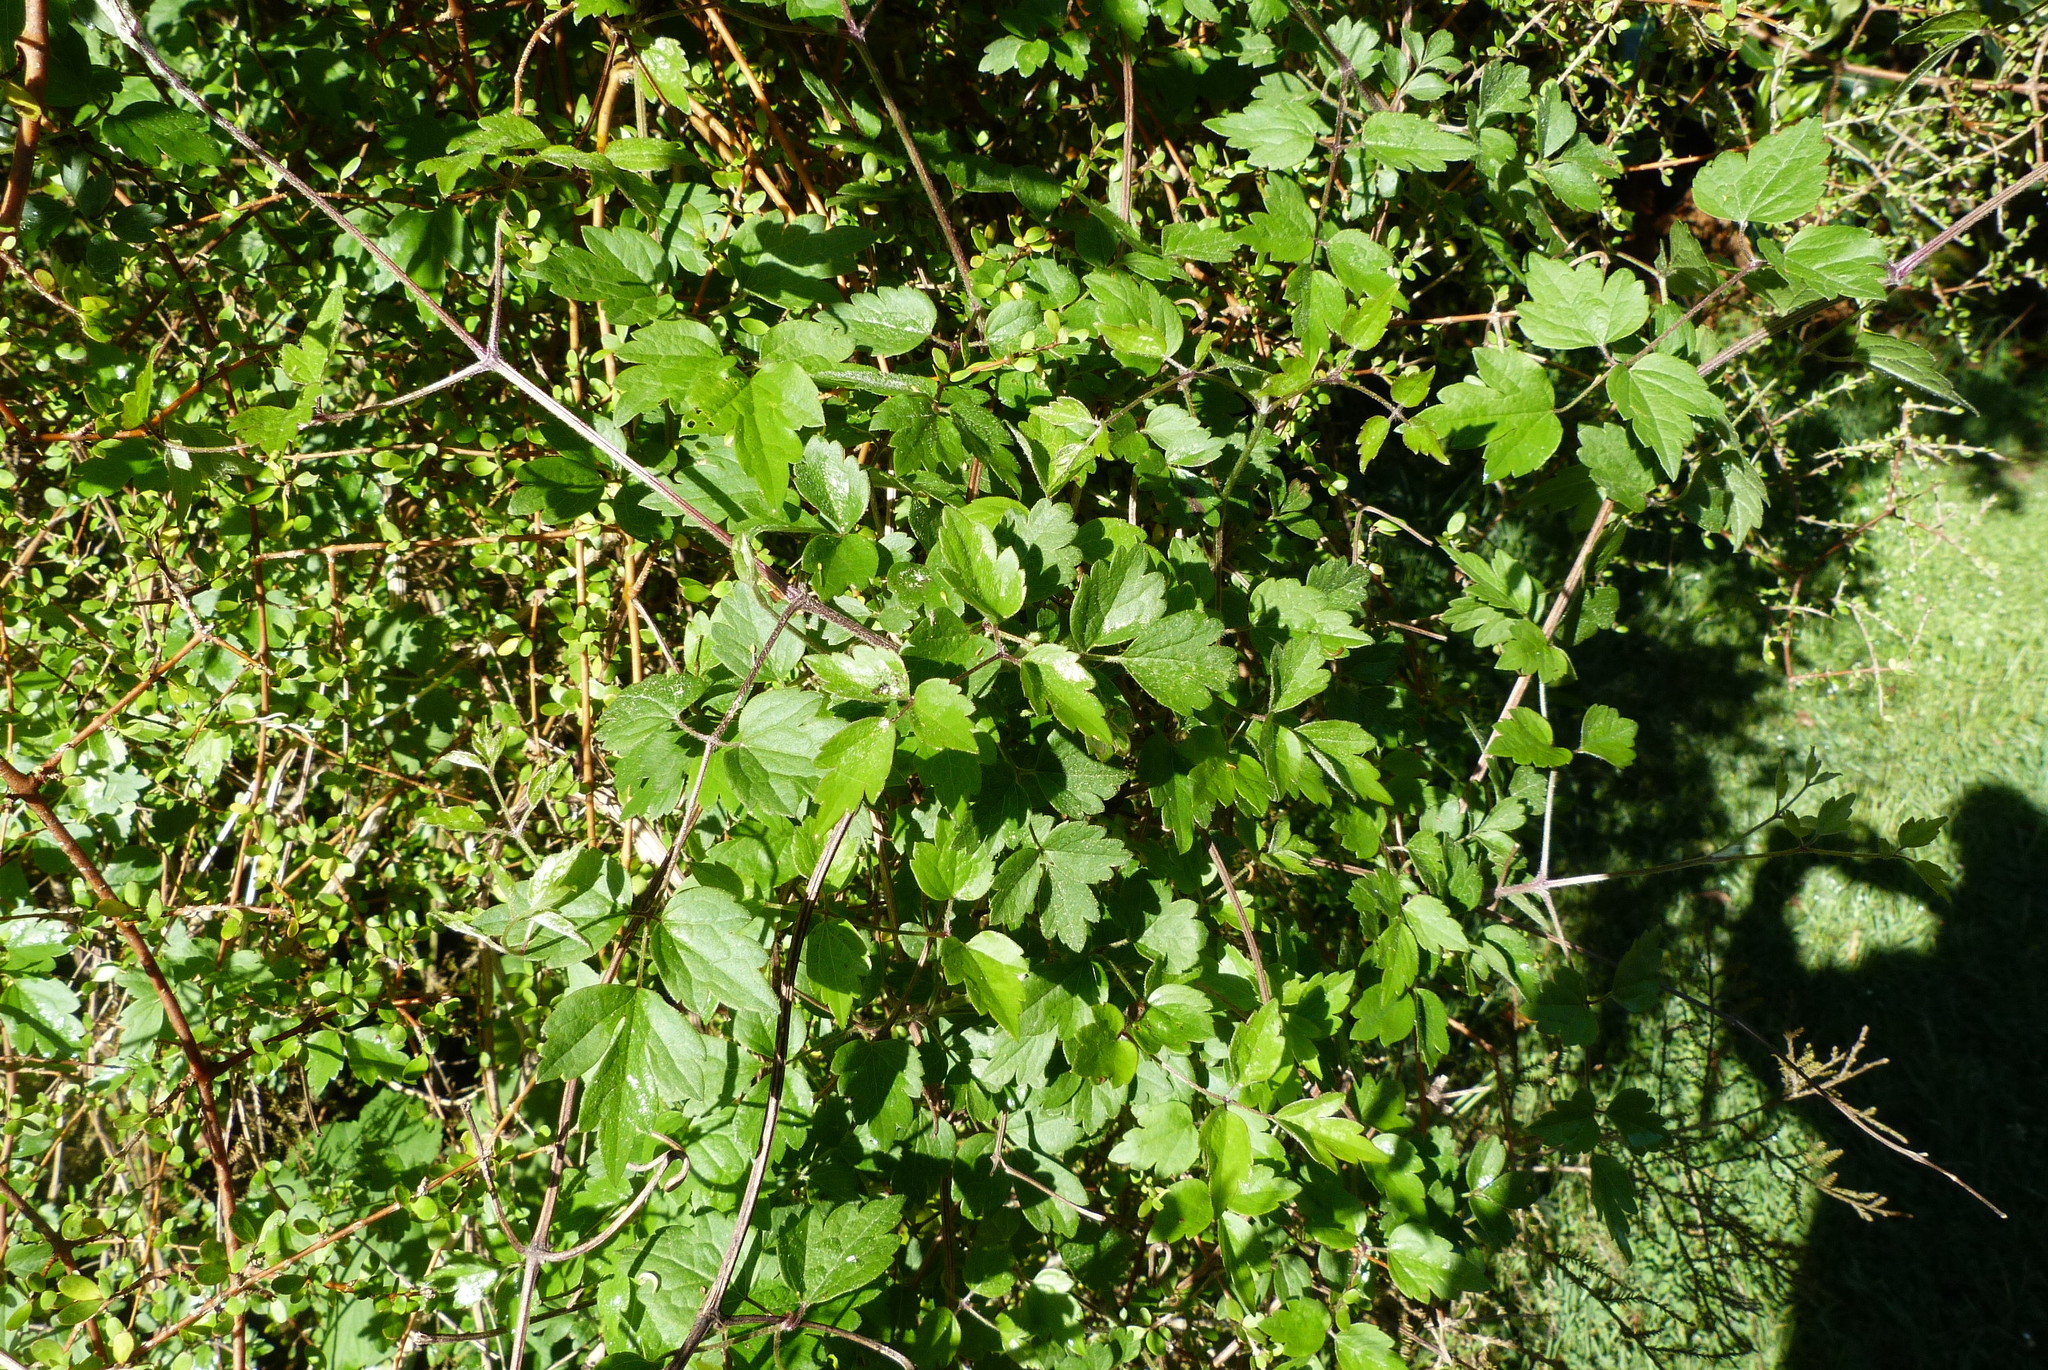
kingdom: Plantae
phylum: Tracheophyta
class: Magnoliopsida
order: Ranunculales
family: Ranunculaceae
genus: Clematis
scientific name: Clematis vitalba
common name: Evergreen clematis
